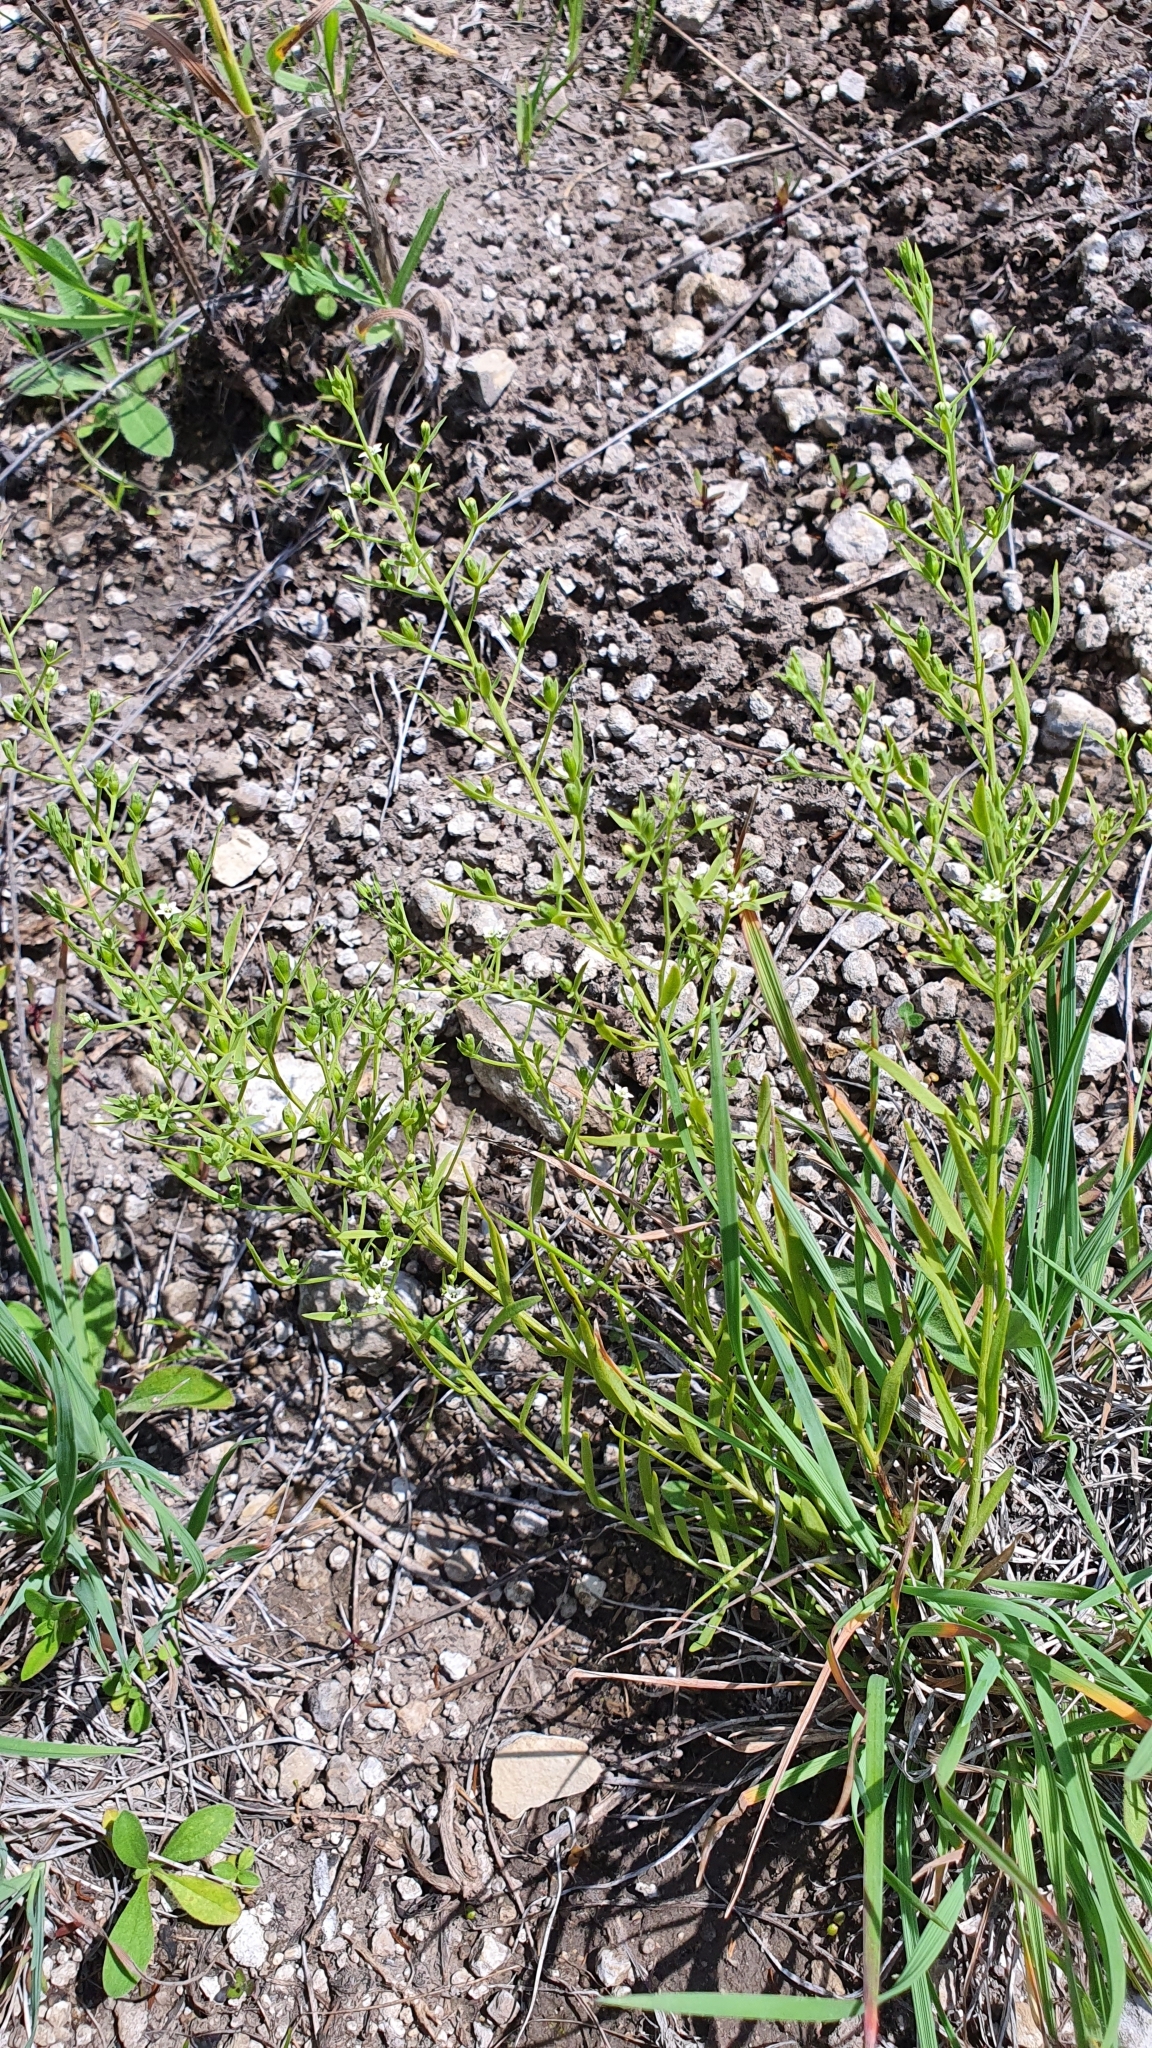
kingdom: Plantae
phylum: Tracheophyta
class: Magnoliopsida
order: Santalales
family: Thesiaceae
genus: Thesium
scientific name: Thesium ramosum
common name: Field thesium
